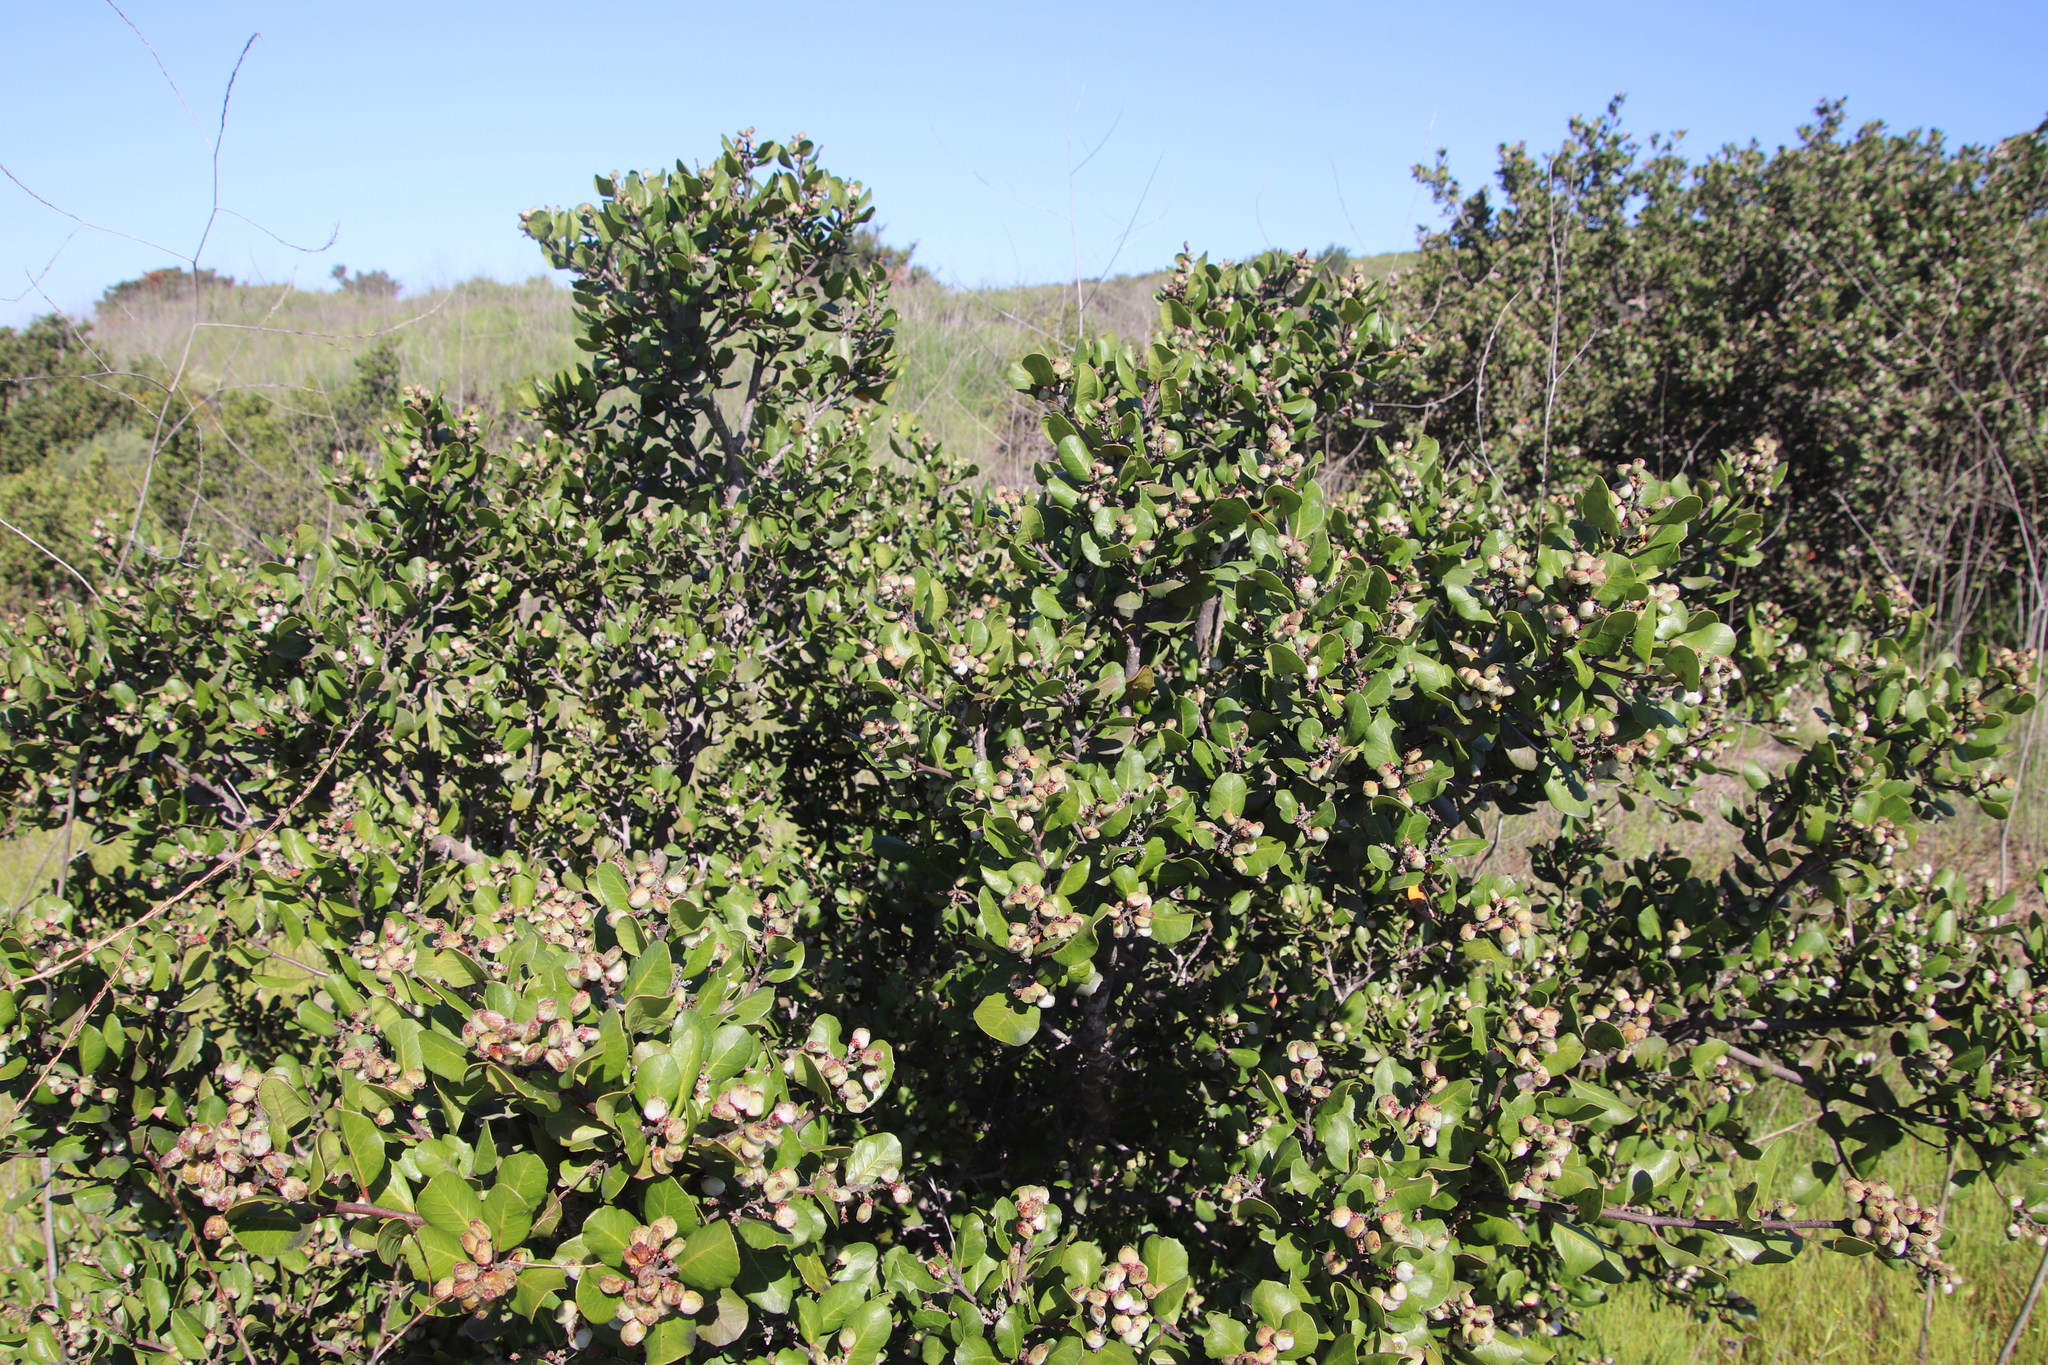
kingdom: Plantae
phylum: Tracheophyta
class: Magnoliopsida
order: Sapindales
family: Anacardiaceae
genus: Rhus
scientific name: Rhus integrifolia
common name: Lemonade sumac
